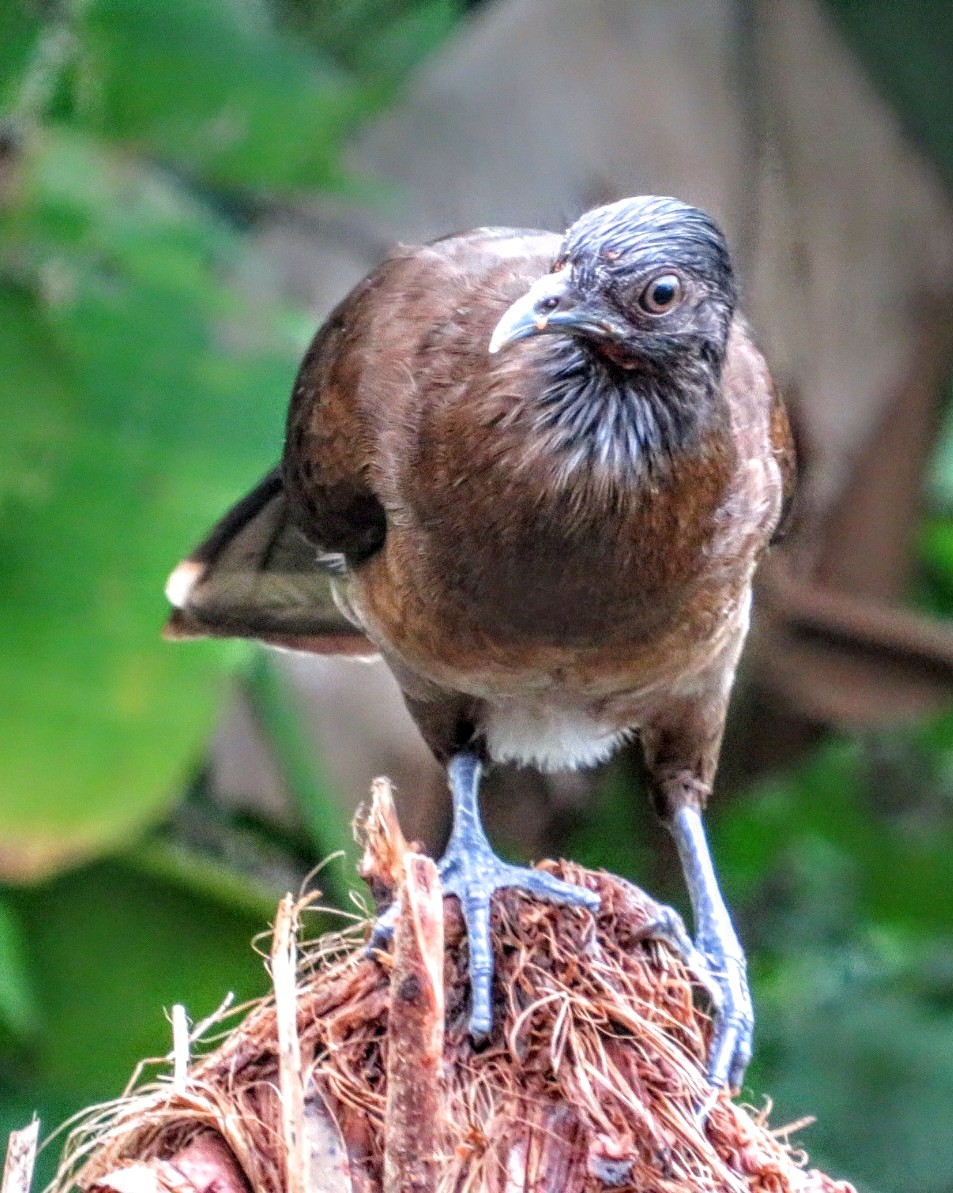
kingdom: Animalia
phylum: Chordata
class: Aves
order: Galliformes
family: Cracidae
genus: Ortalis
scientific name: Ortalis cinereiceps
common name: Grey-headed chachalaca
